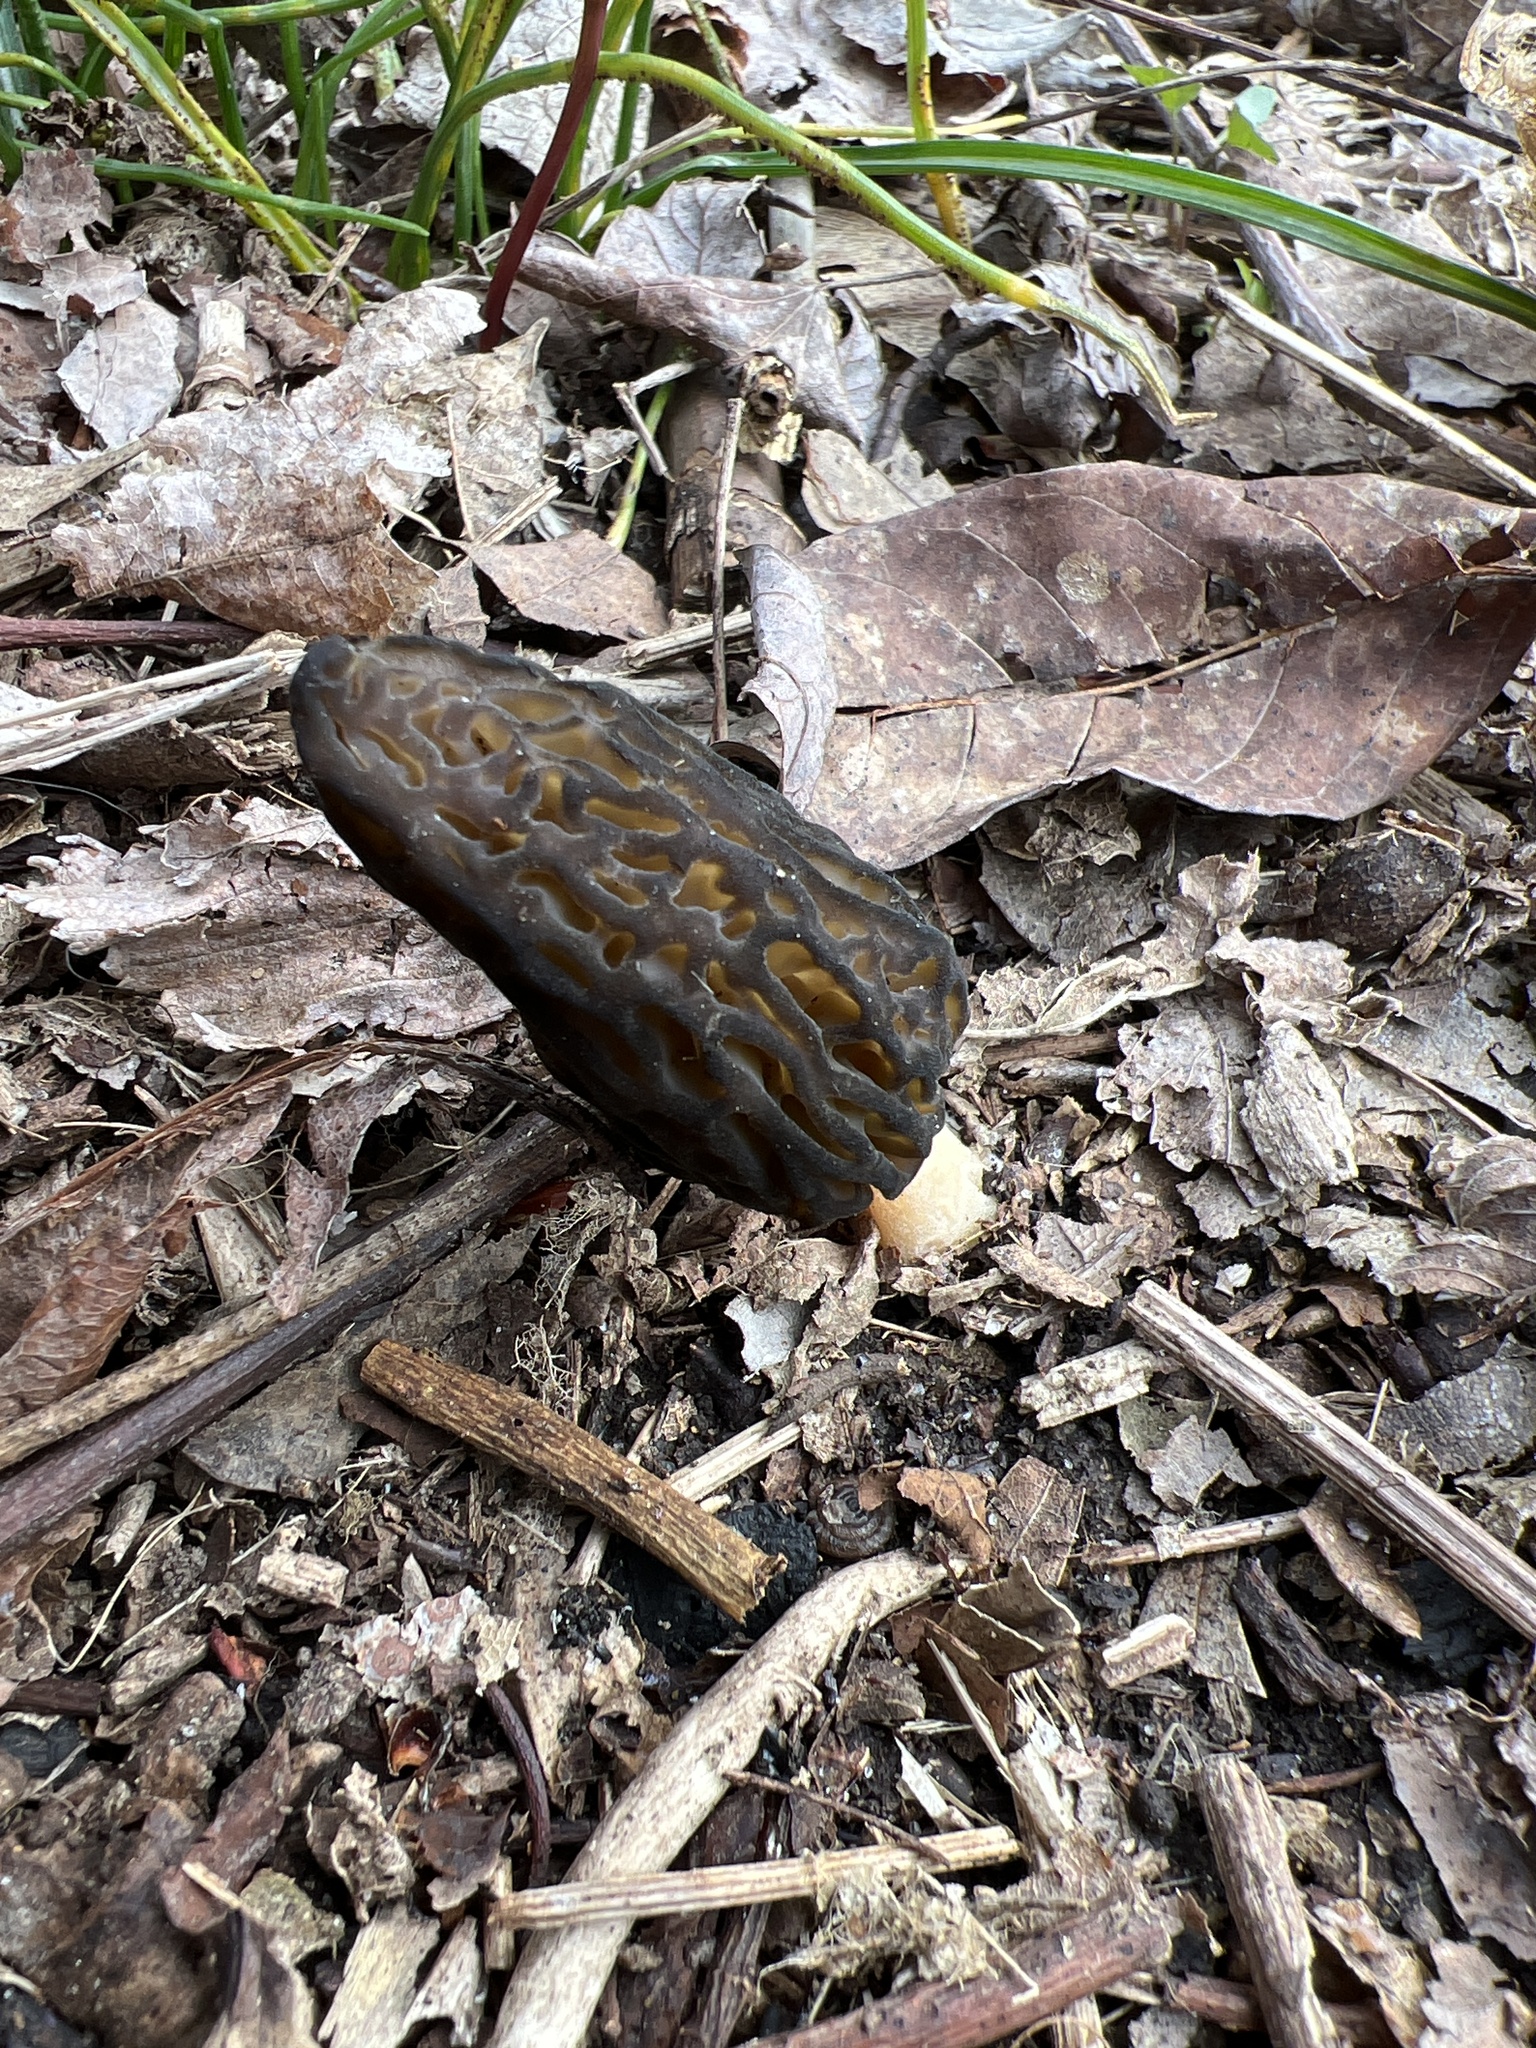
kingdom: Fungi
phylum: Ascomycota
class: Pezizomycetes
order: Pezizales
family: Morchellaceae
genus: Morchella
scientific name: Morchella angusticeps
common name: Black morel
